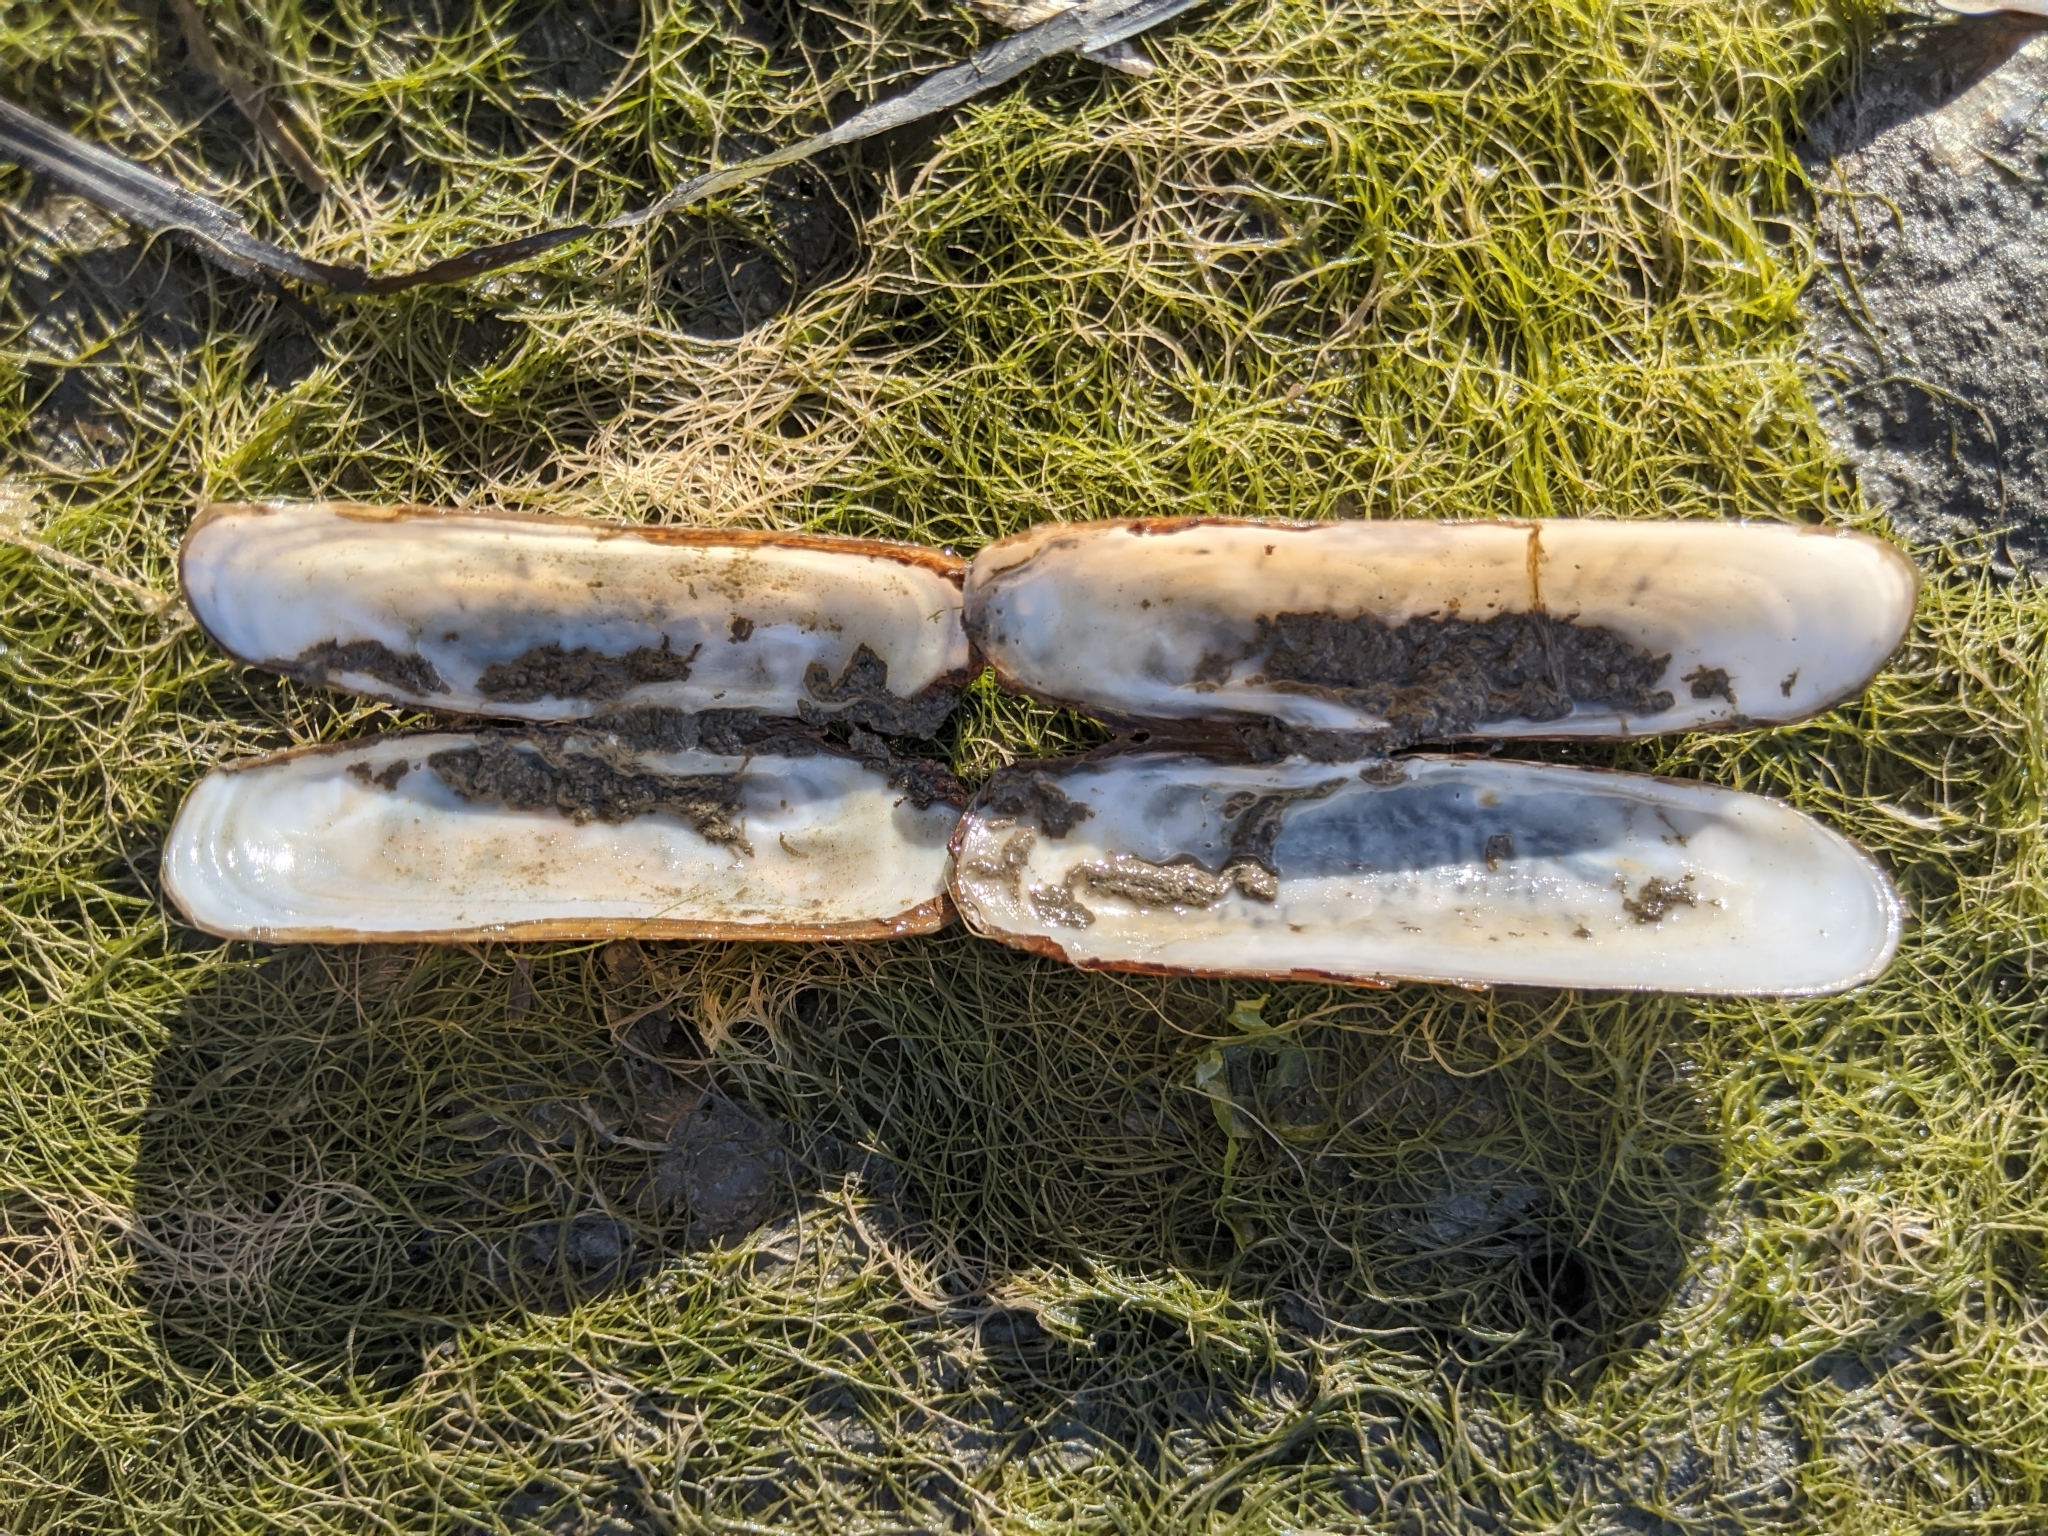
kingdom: Animalia
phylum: Mollusca
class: Bivalvia
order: Cardiida
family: Solecurtidae
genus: Tagelus
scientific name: Tagelus californianus
